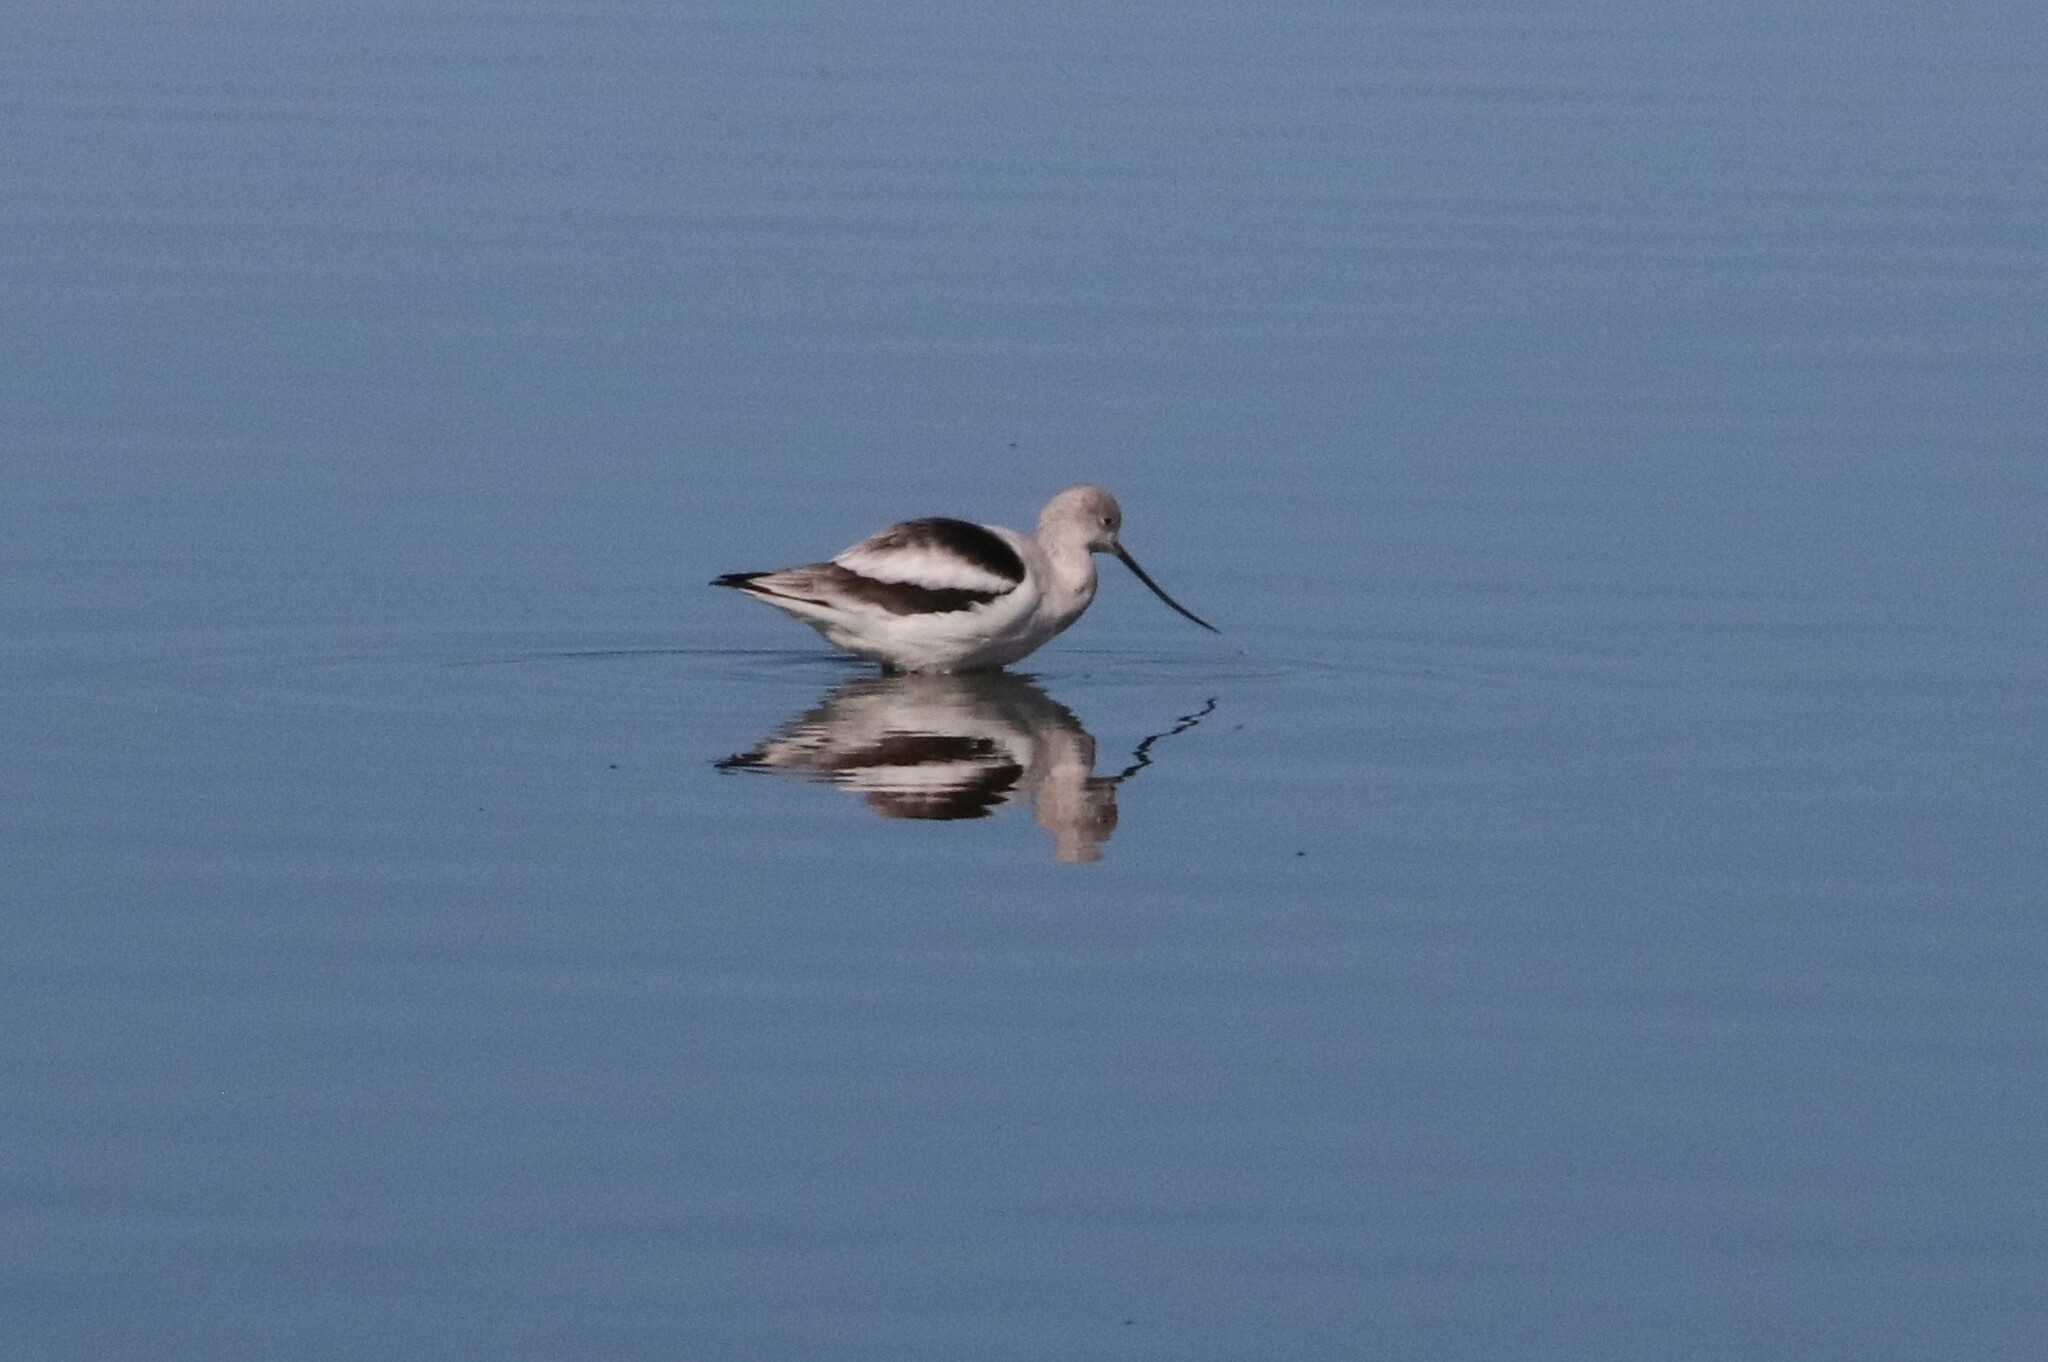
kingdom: Animalia
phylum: Chordata
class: Aves
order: Charadriiformes
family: Recurvirostridae
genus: Recurvirostra
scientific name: Recurvirostra americana
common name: American avocet
